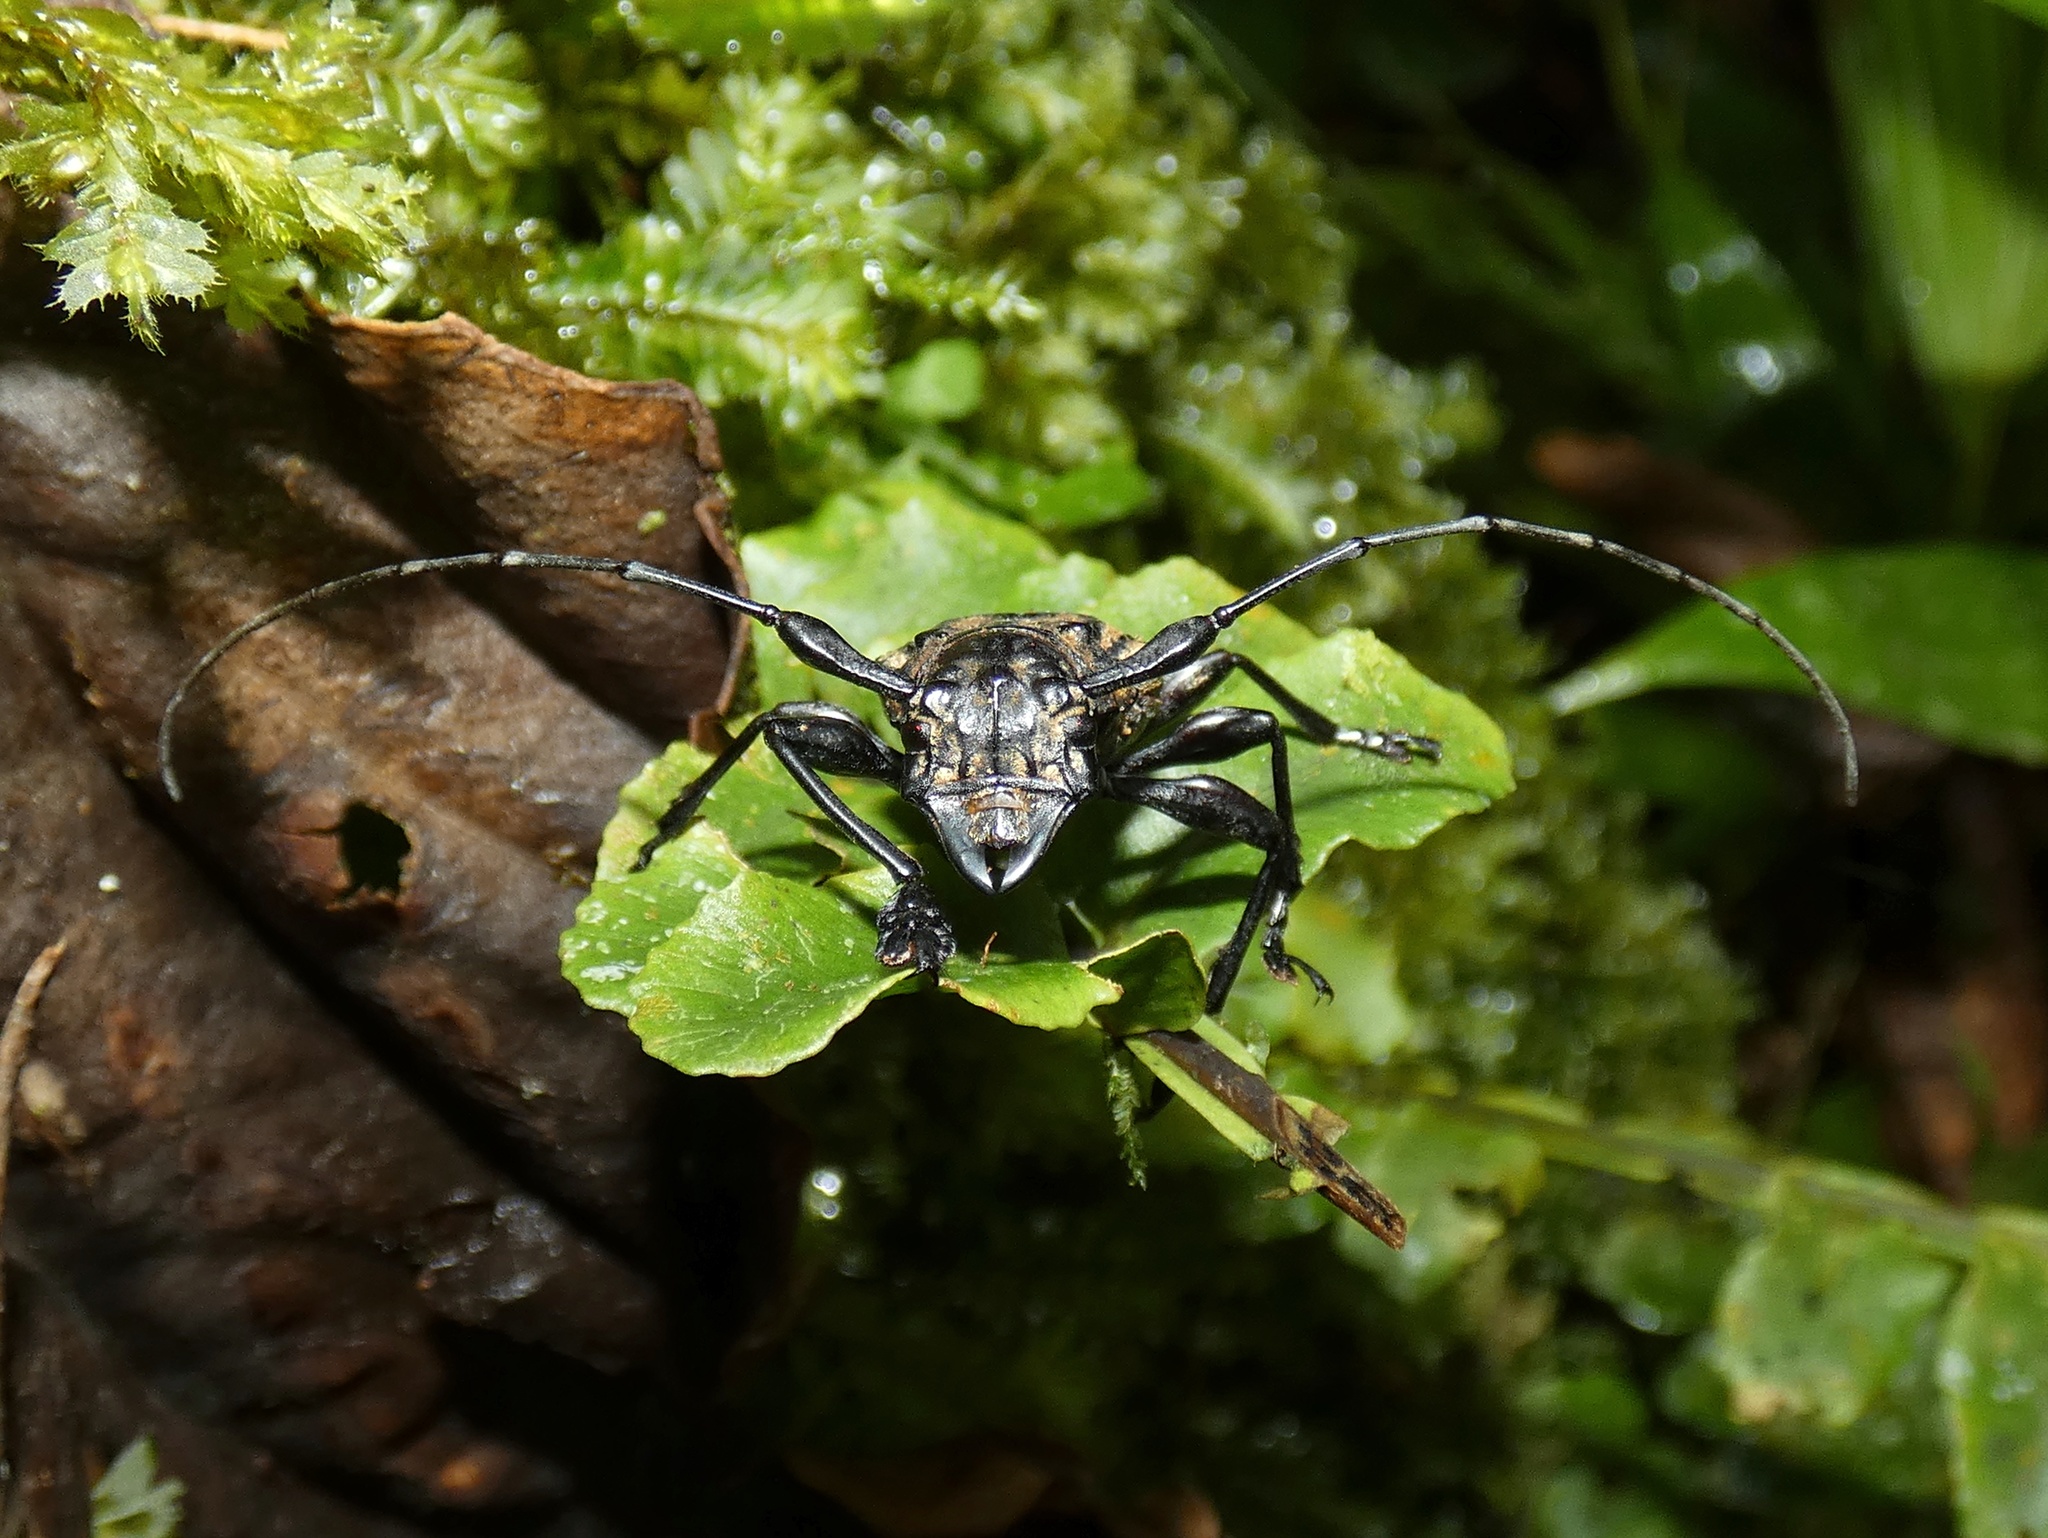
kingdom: Animalia
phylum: Arthropoda
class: Insecta
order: Coleoptera
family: Cerambycidae
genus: Steirastoma
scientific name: Steirastoma histrionicum
